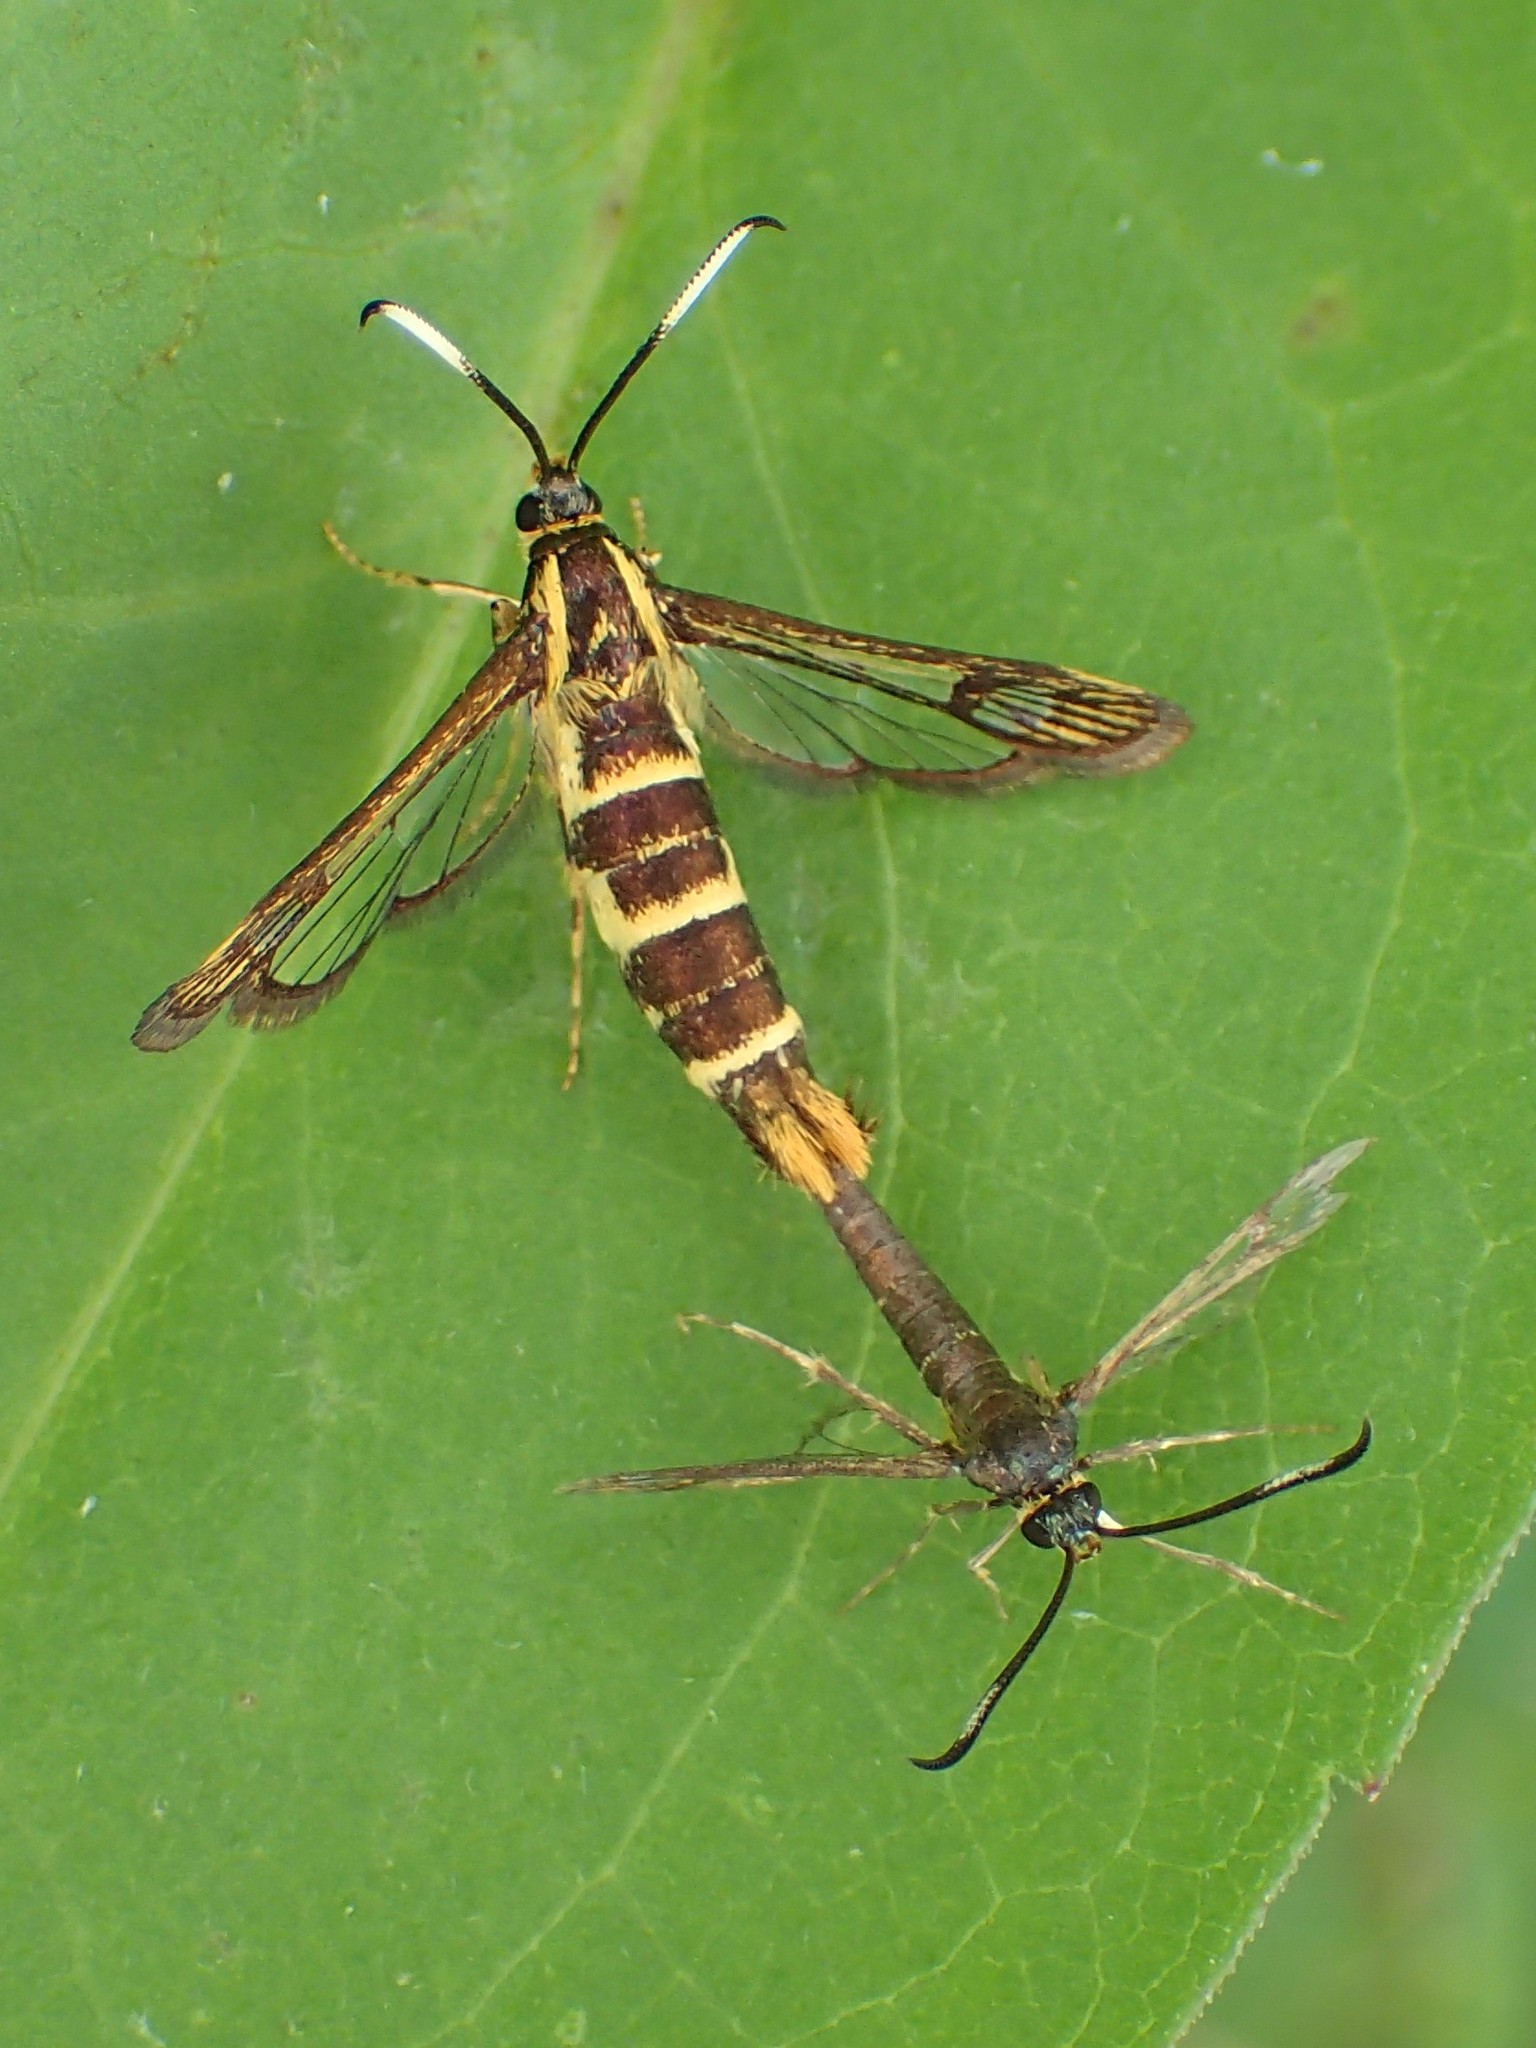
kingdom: Animalia
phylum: Arthropoda
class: Insecta
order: Lepidoptera
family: Sesiidae
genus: Carmenta
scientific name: Carmenta bassiformis
